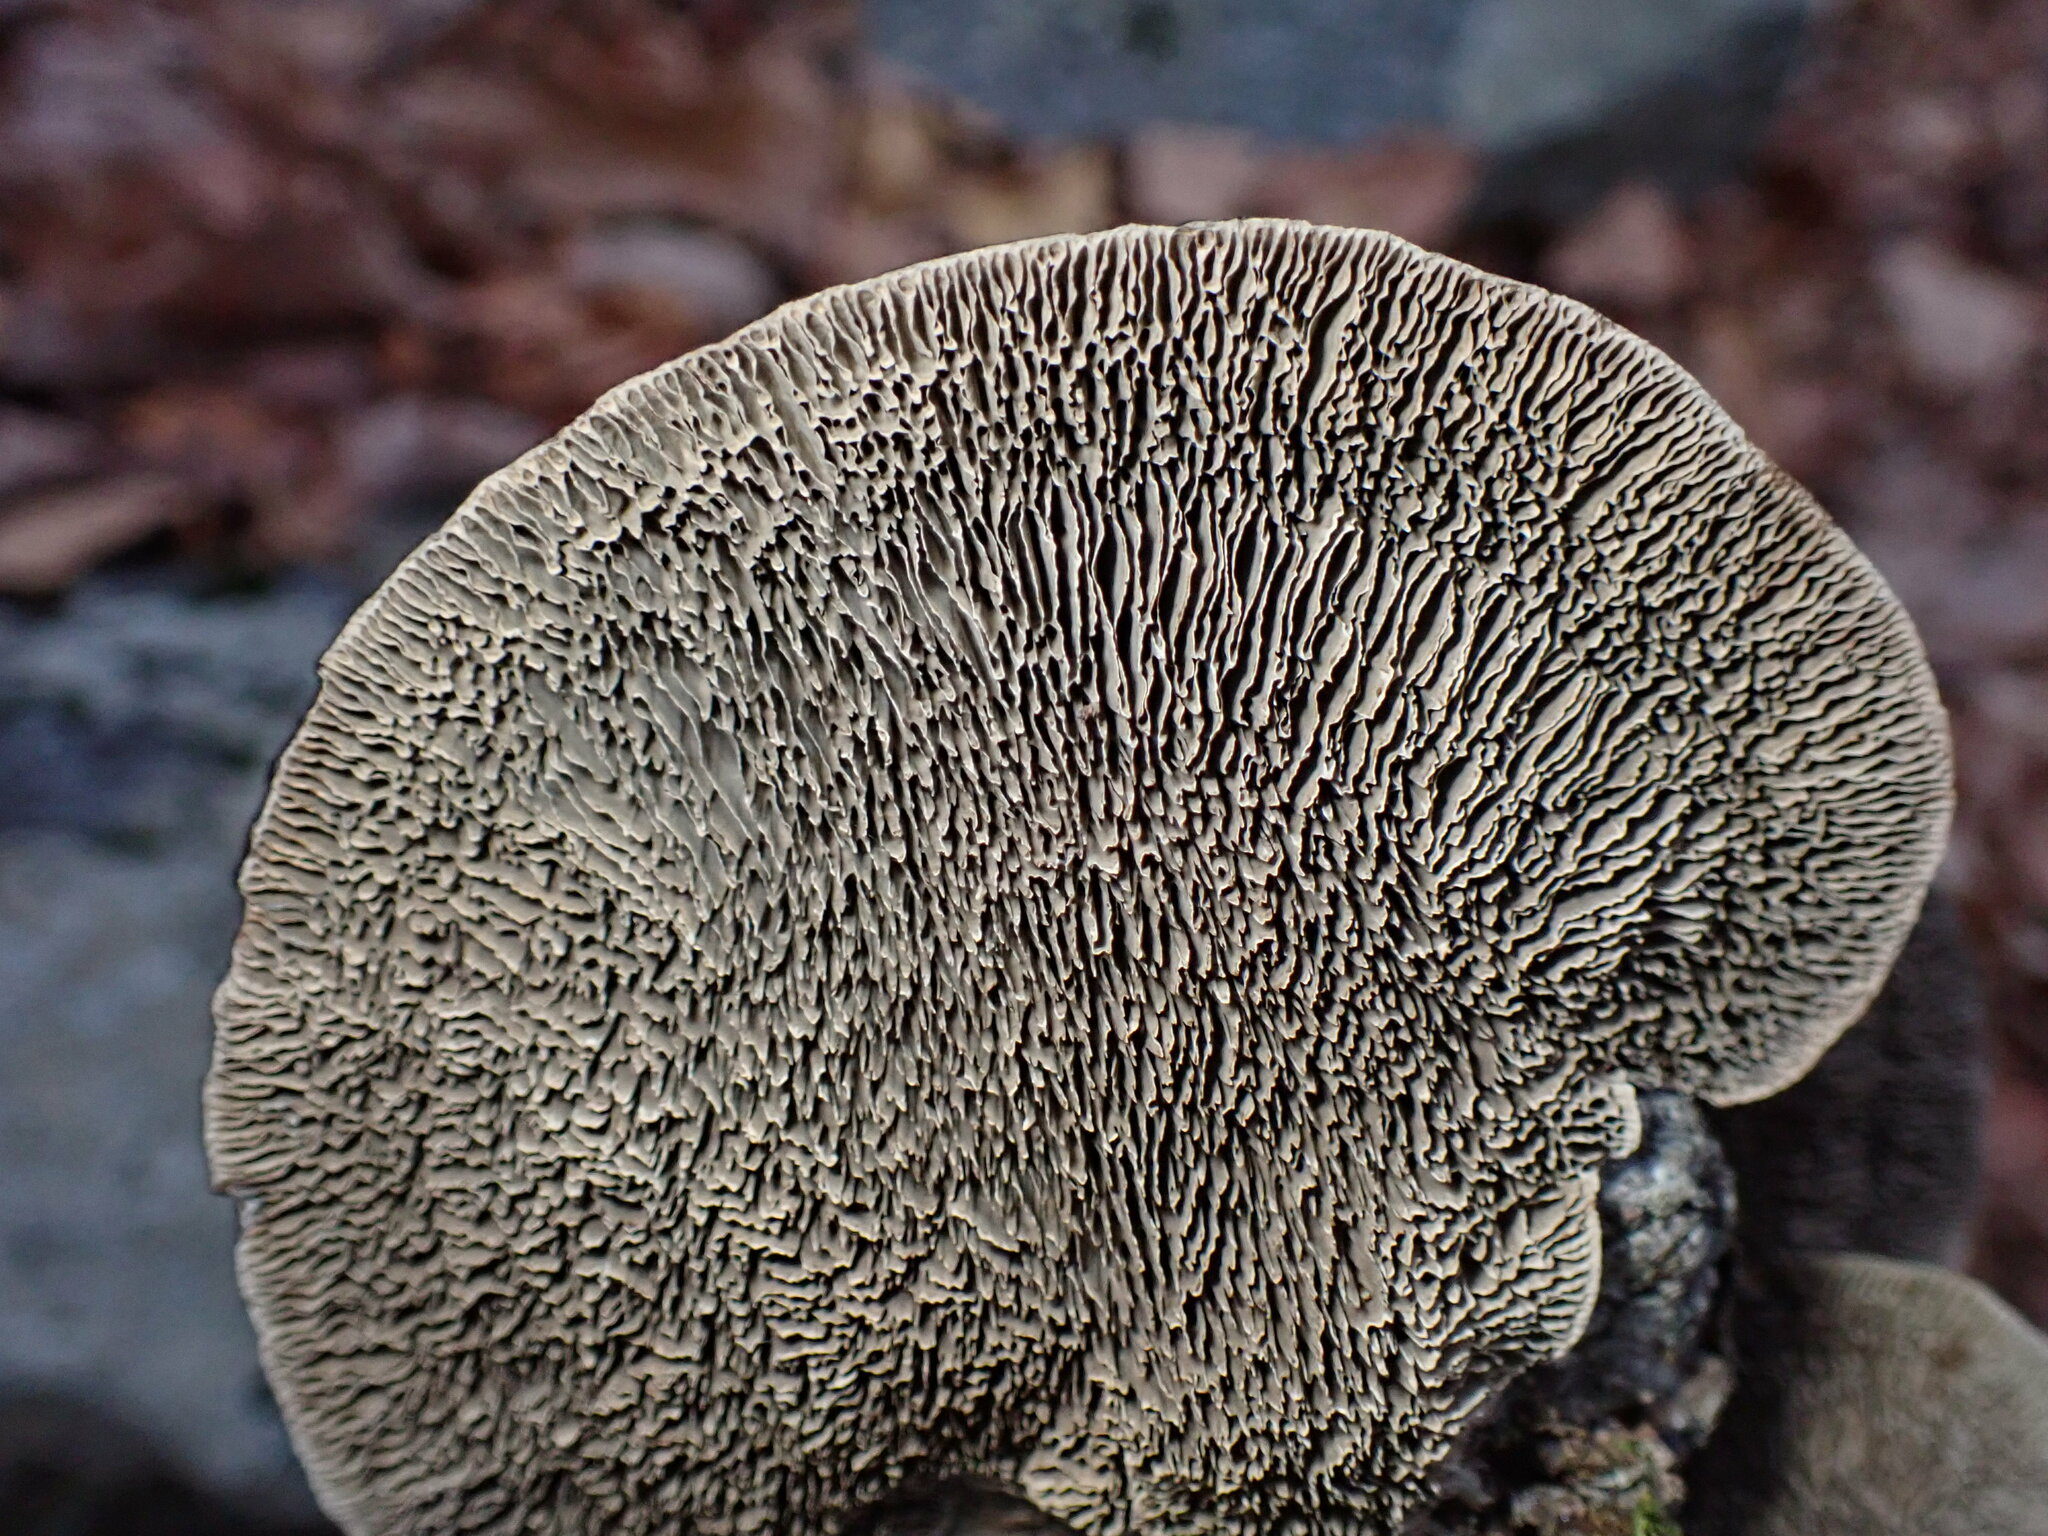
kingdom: Fungi
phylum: Basidiomycota
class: Agaricomycetes
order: Polyporales
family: Polyporaceae
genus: Daedaleopsis
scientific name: Daedaleopsis confragosa
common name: Blushing bracket
